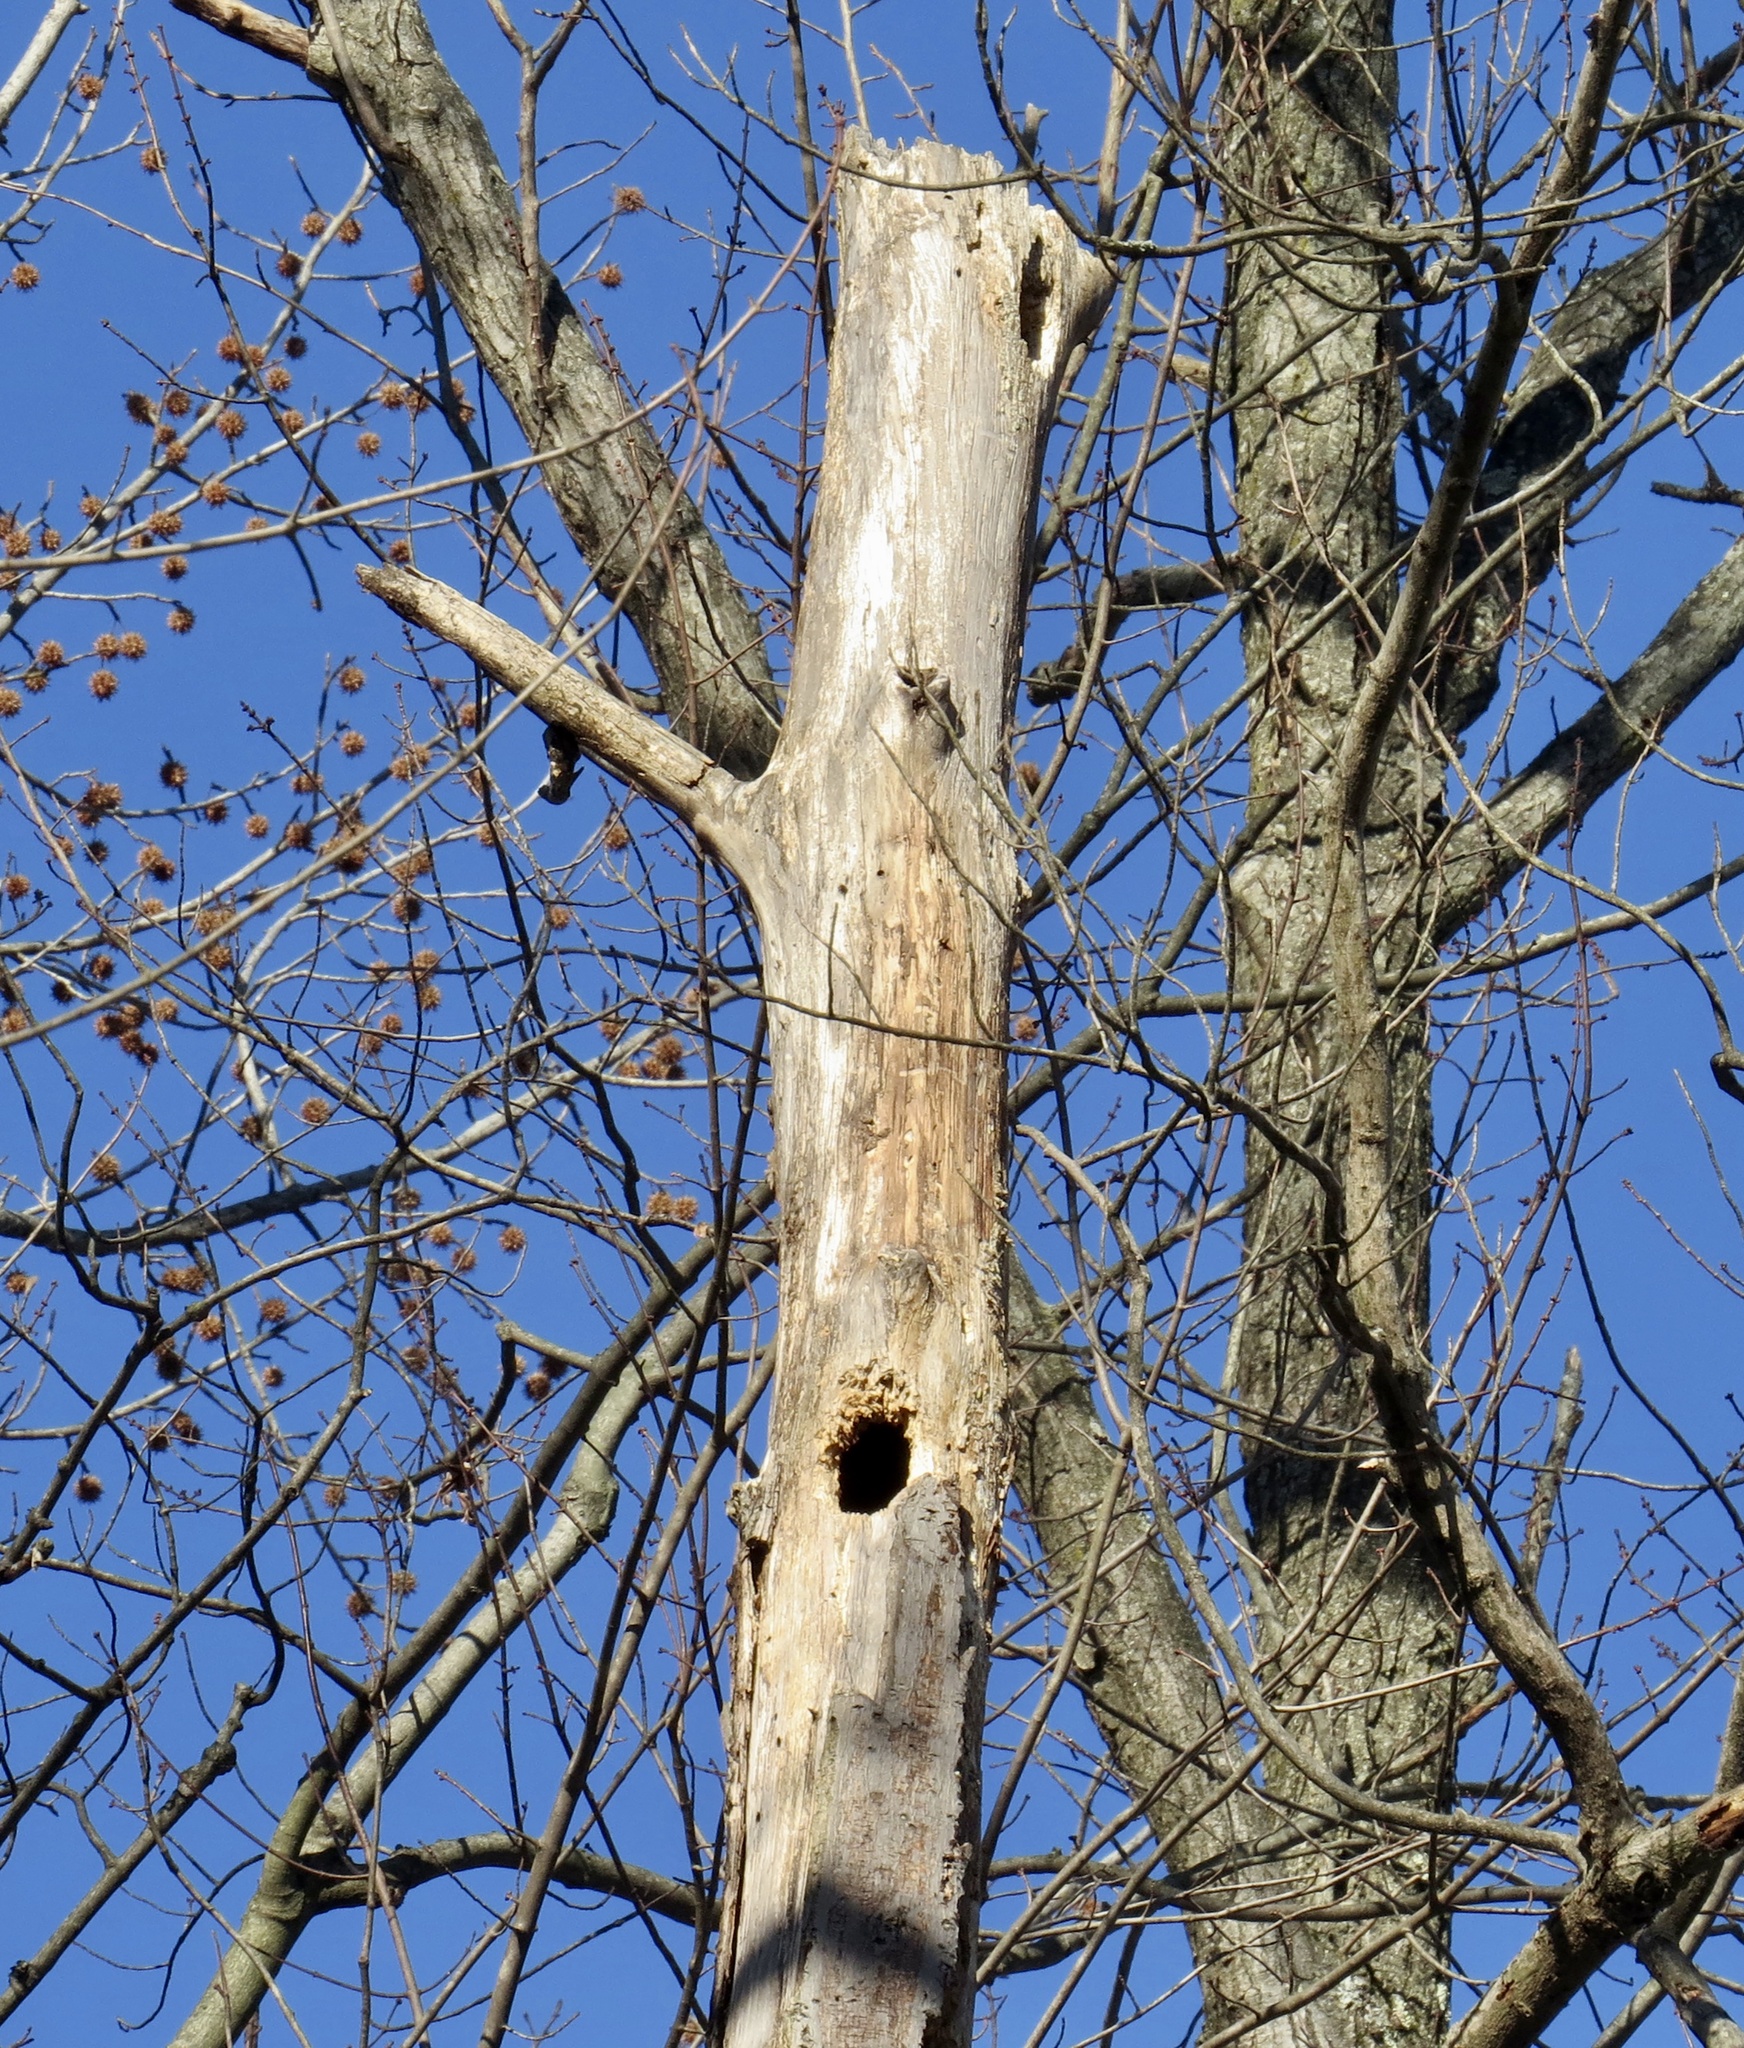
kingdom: Animalia
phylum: Chordata
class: Aves
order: Piciformes
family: Picidae
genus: Dryocopus
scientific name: Dryocopus pileatus
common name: Pileated woodpecker
